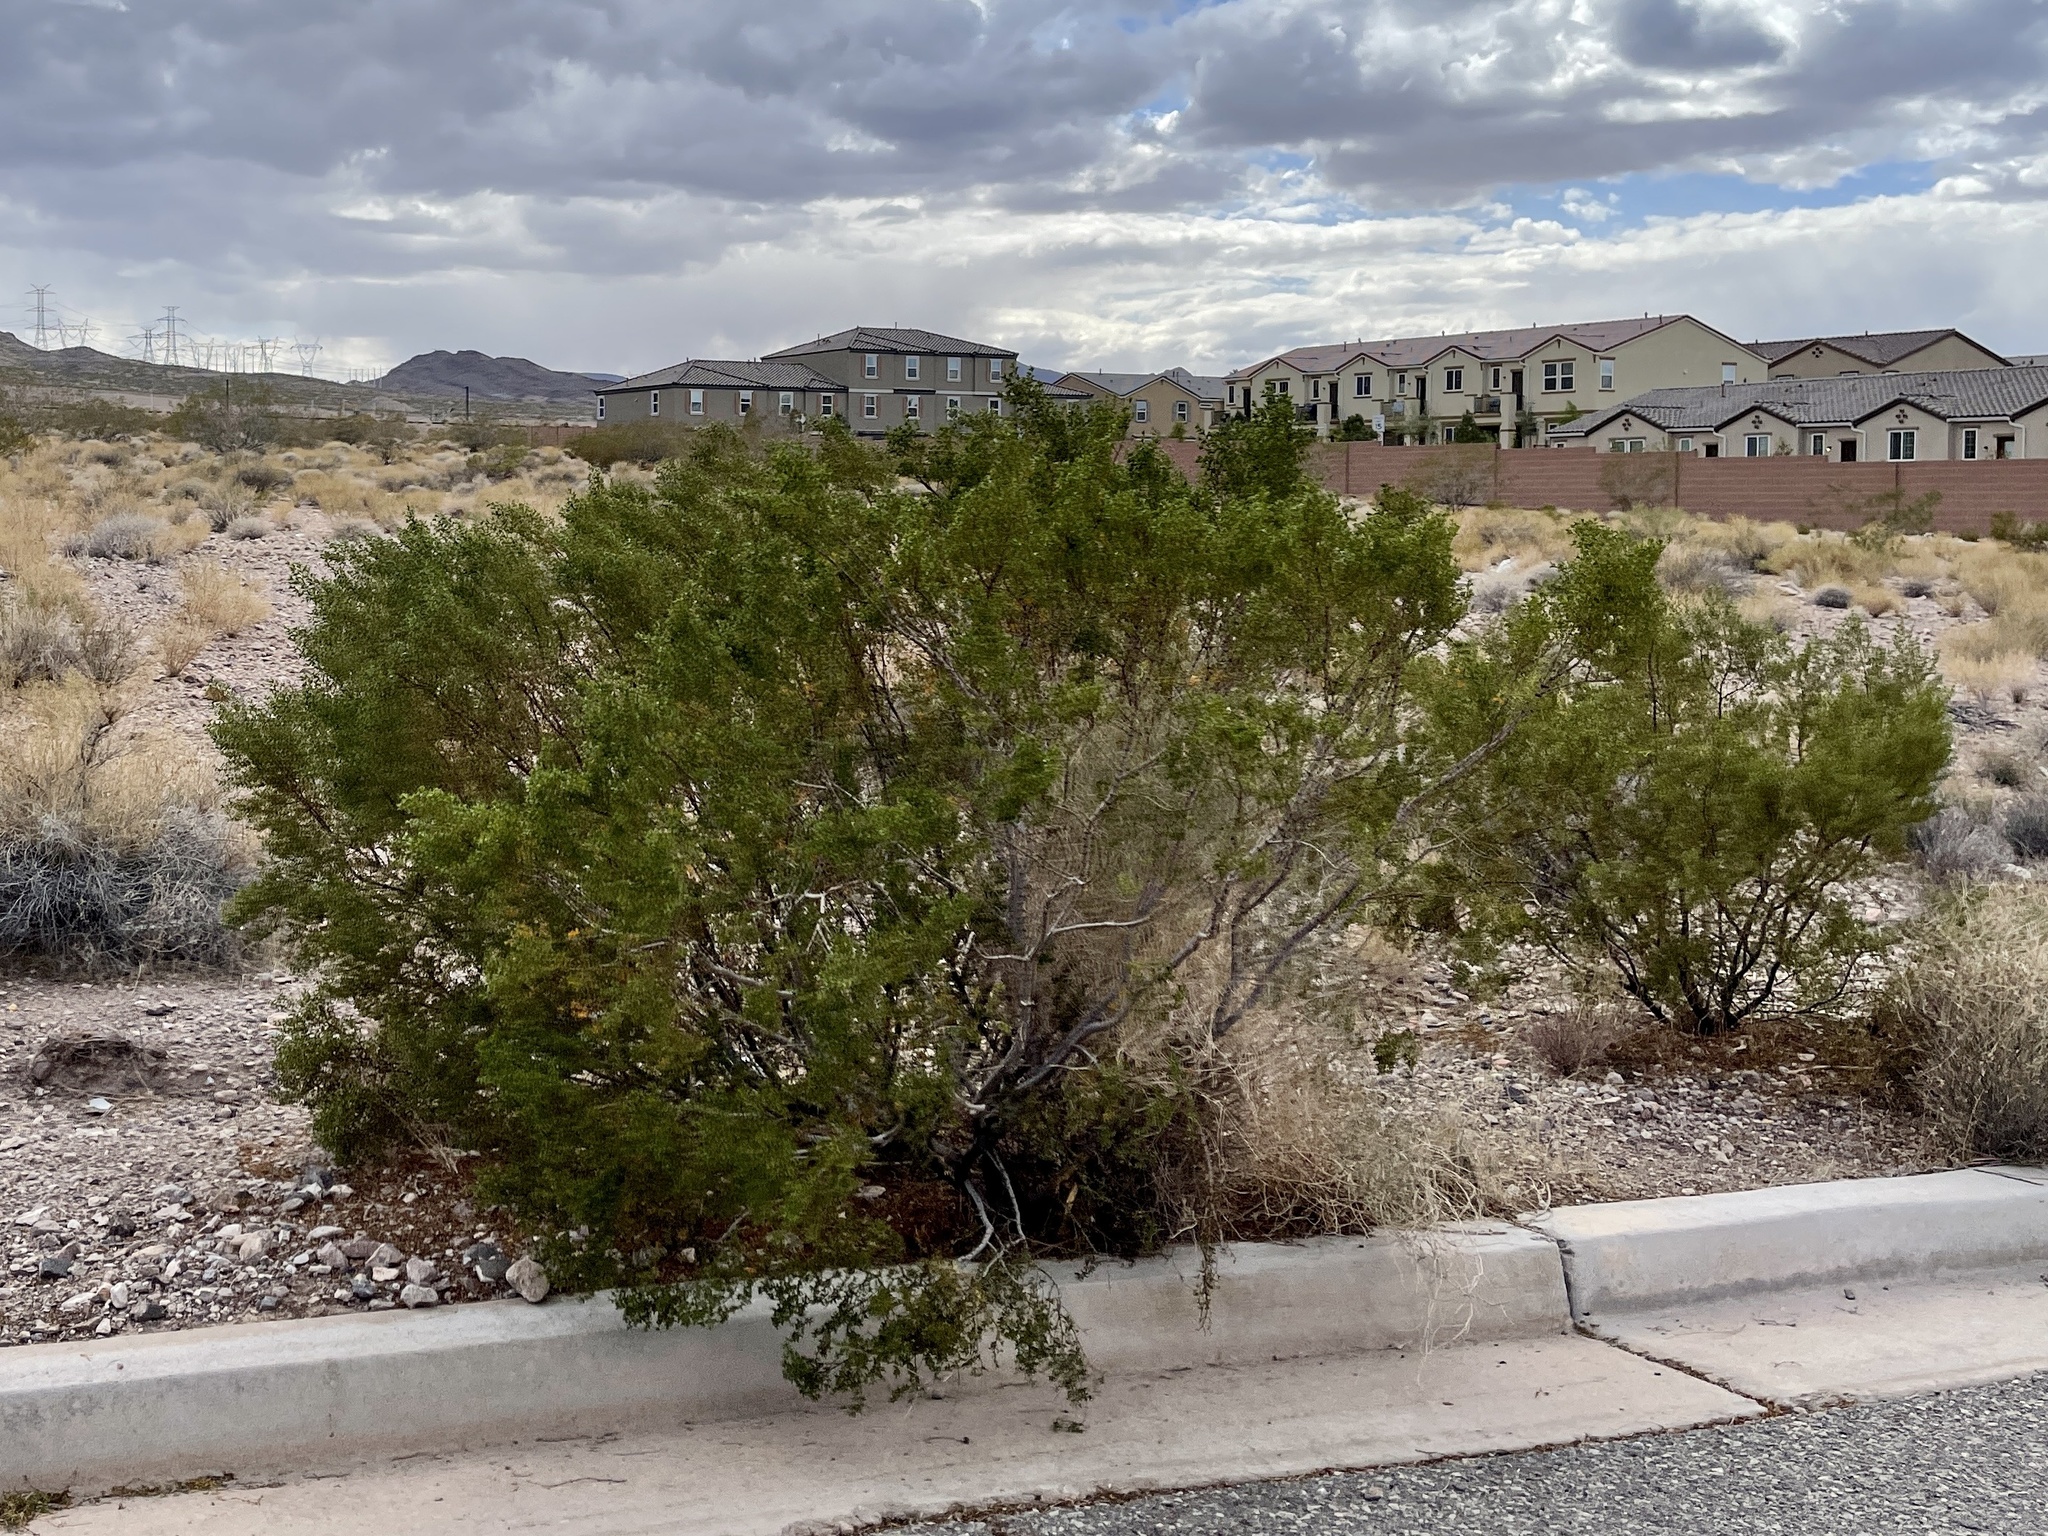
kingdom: Plantae
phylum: Tracheophyta
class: Magnoliopsida
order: Zygophyllales
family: Zygophyllaceae
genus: Larrea
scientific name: Larrea tridentata
